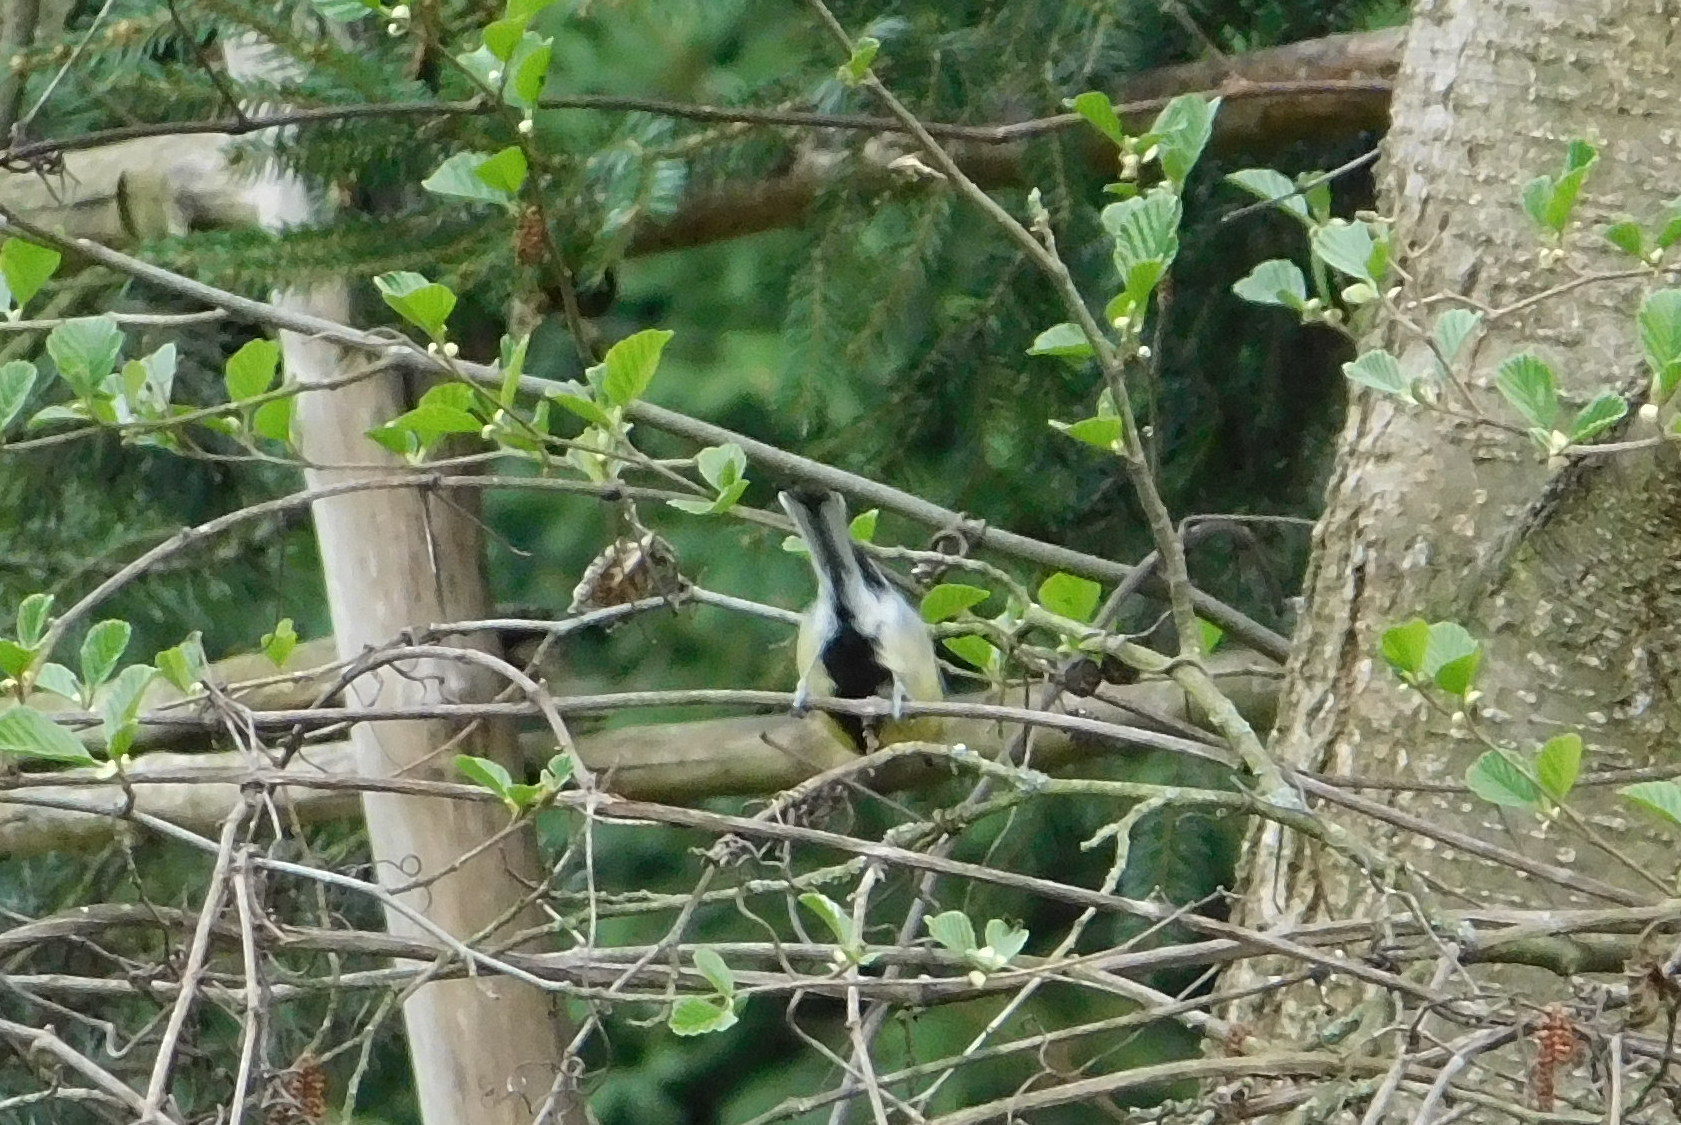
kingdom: Animalia
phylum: Chordata
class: Aves
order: Passeriformes
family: Paridae
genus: Parus
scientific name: Parus major
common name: Great tit
